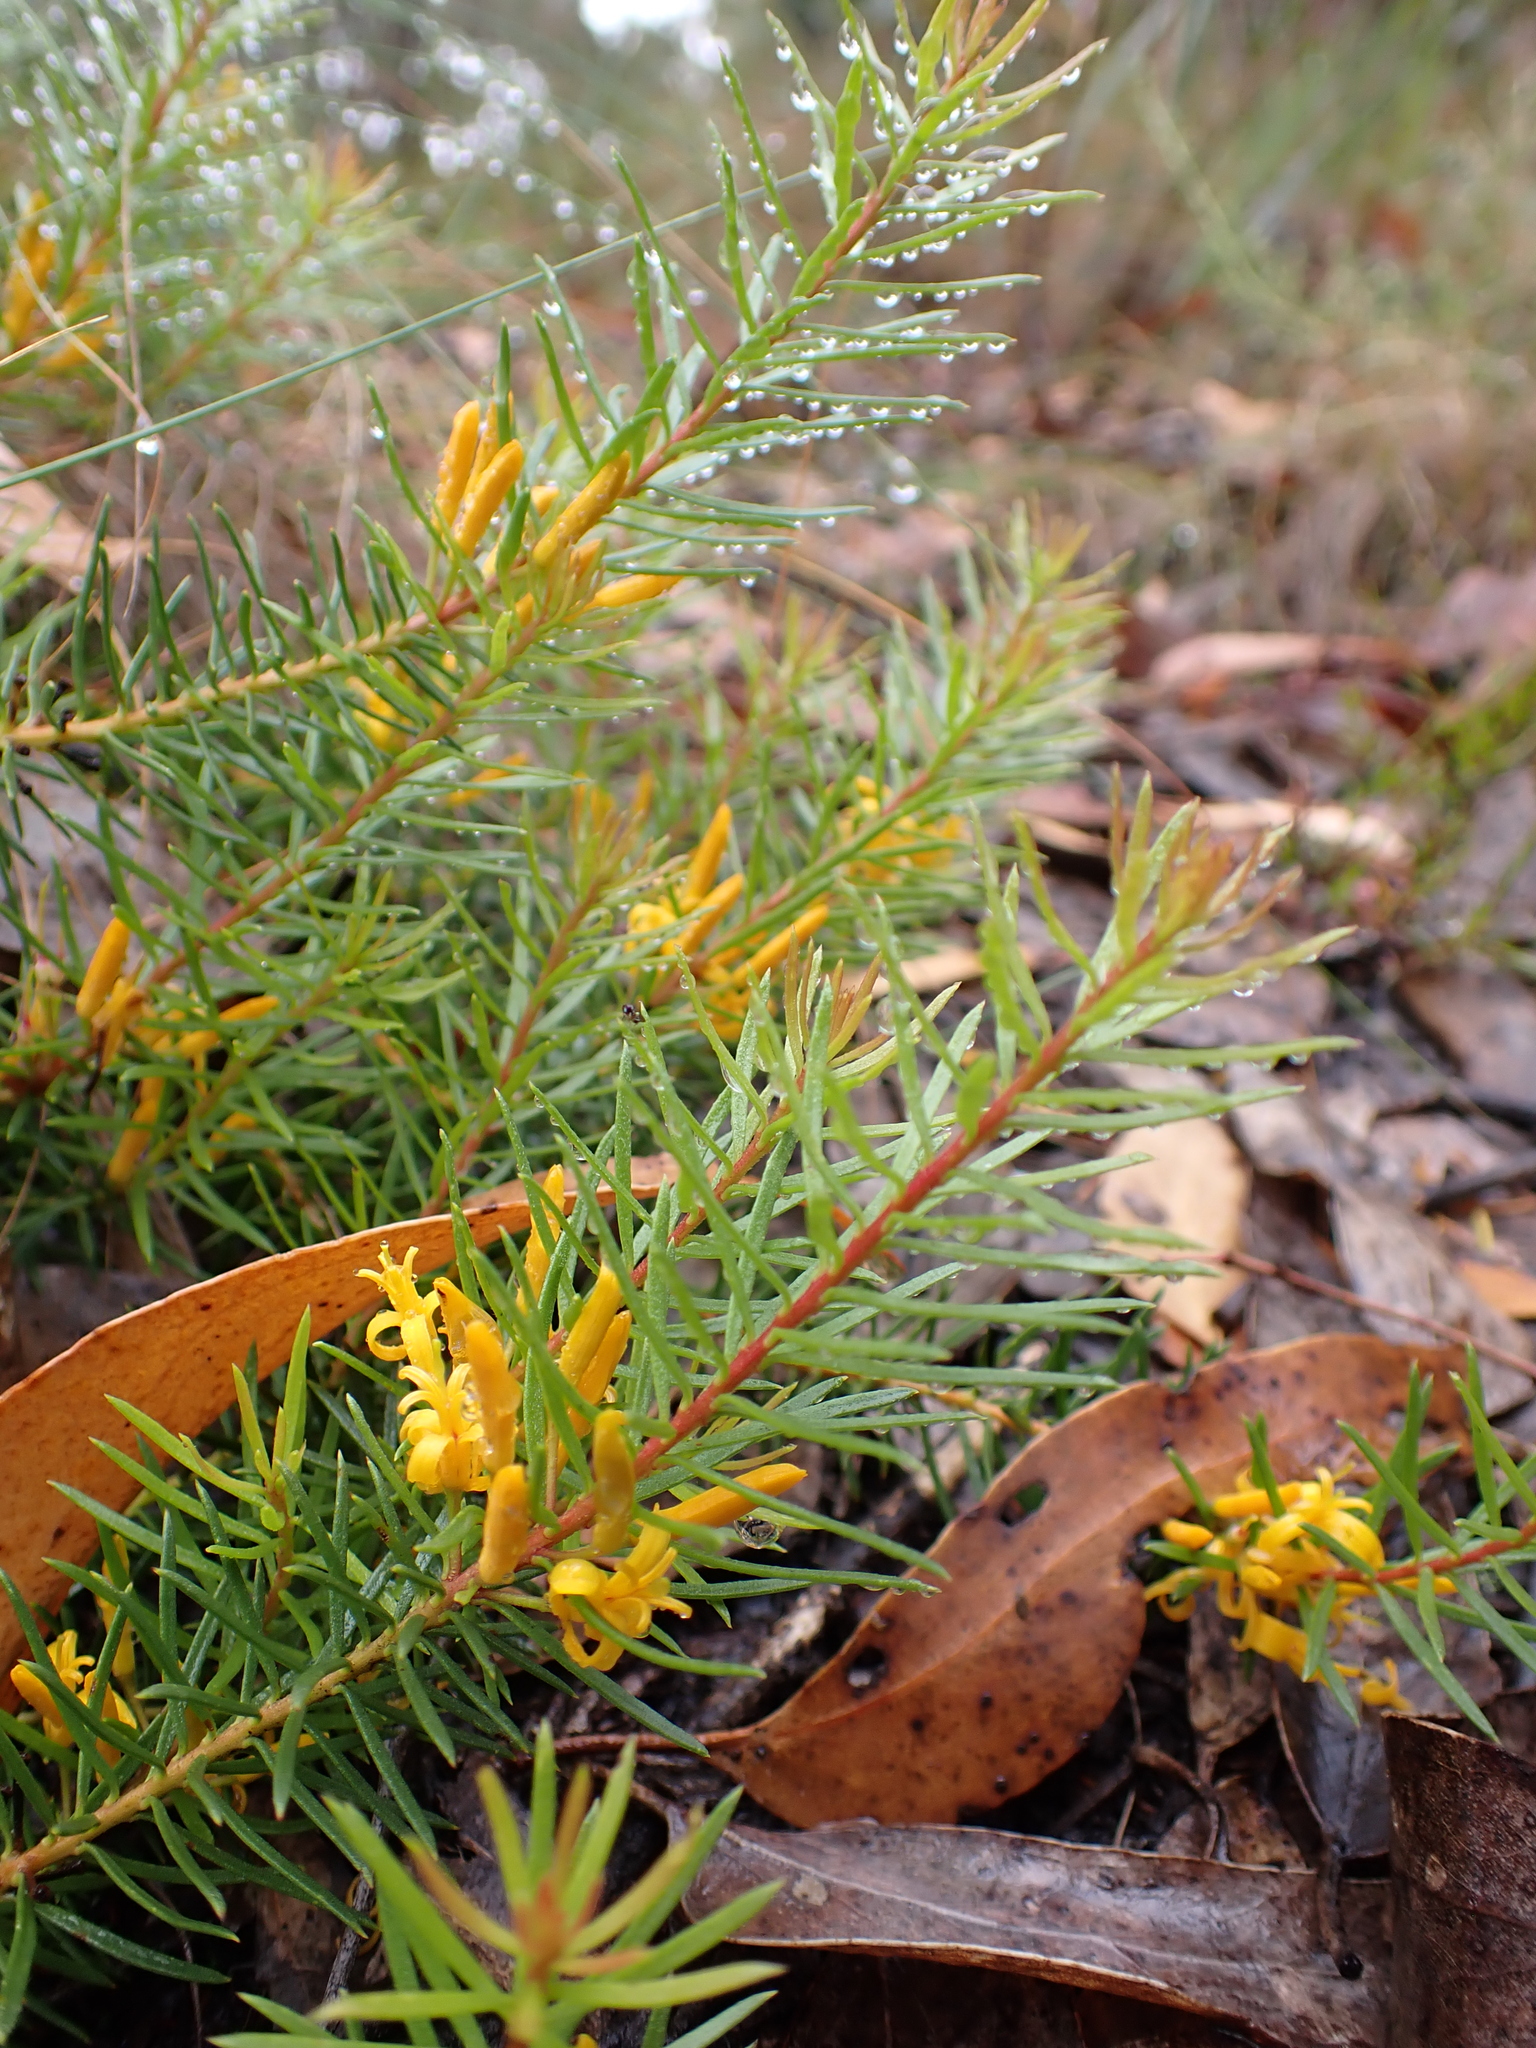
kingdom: Plantae
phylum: Tracheophyta
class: Magnoliopsida
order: Proteales
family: Proteaceae
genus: Persoonia
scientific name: Persoonia chamaepeuce
